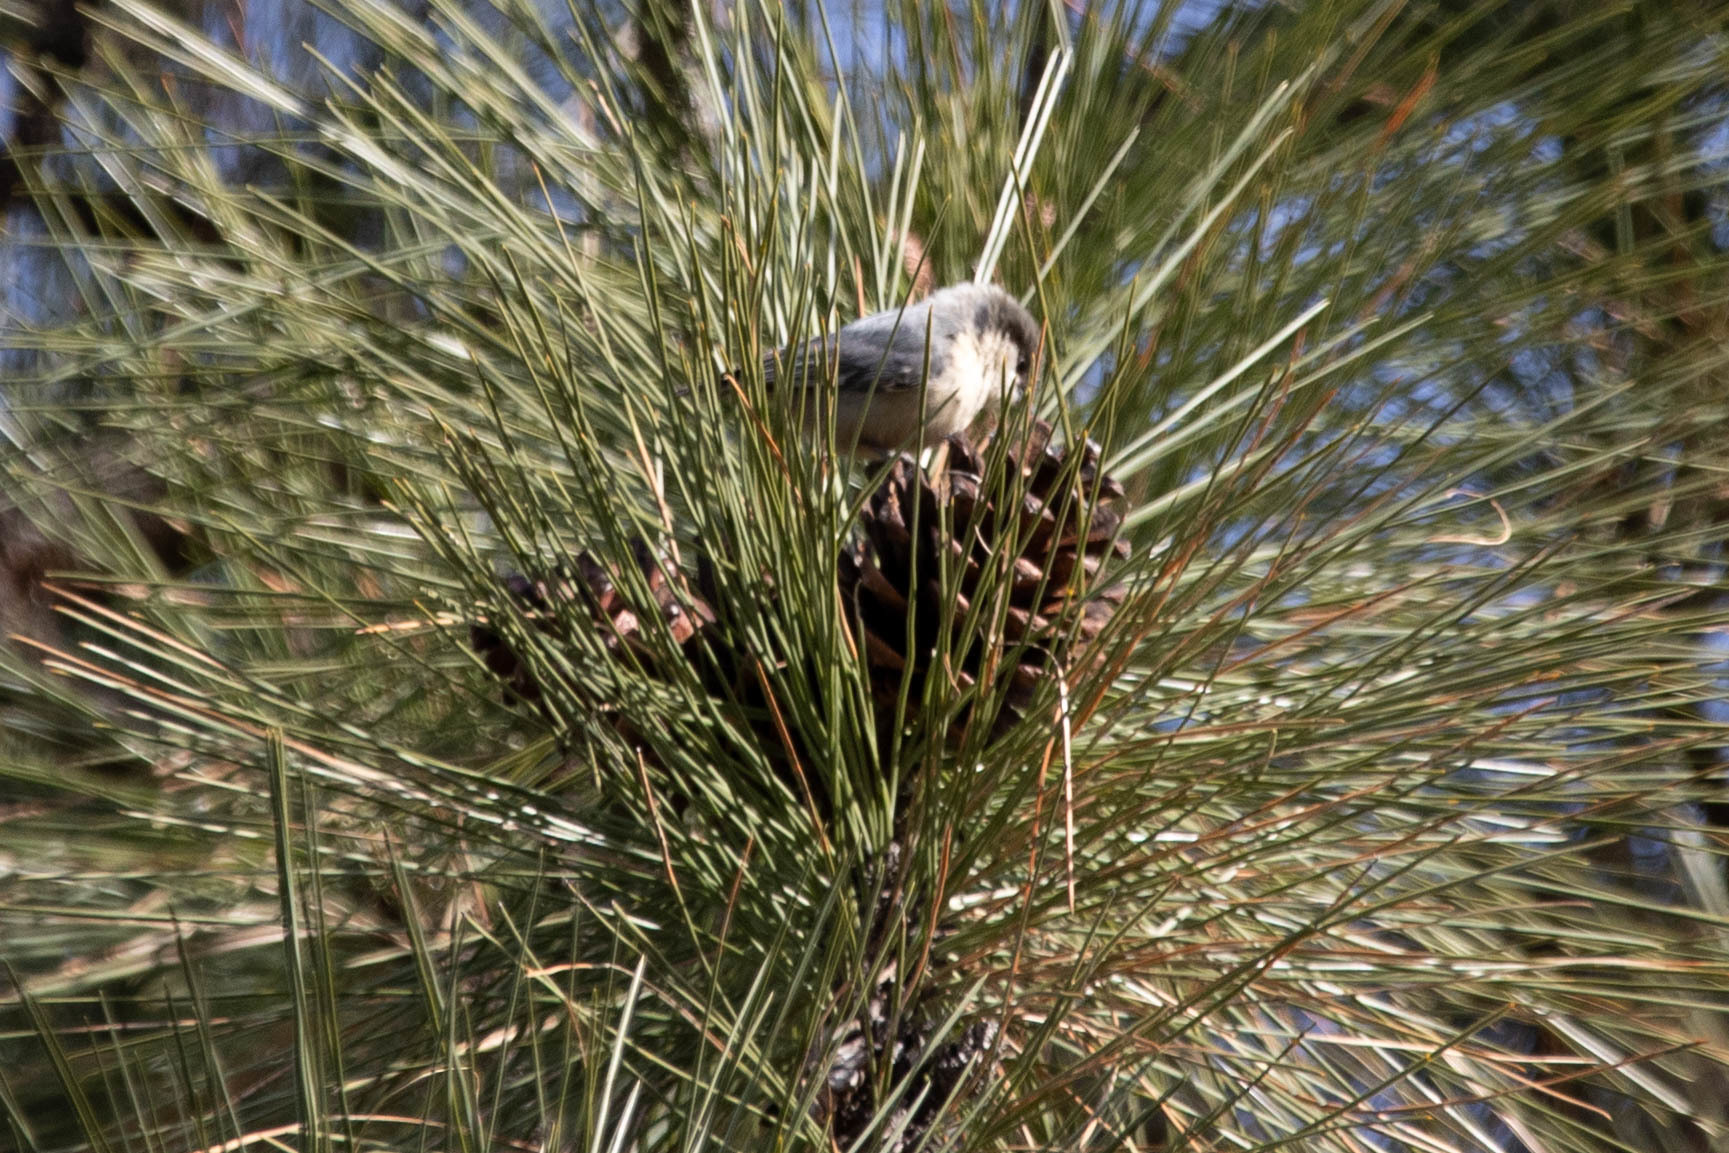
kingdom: Animalia
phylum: Chordata
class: Aves
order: Passeriformes
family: Sittidae
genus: Sitta
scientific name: Sitta pygmaea
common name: Pygmy nuthatch
